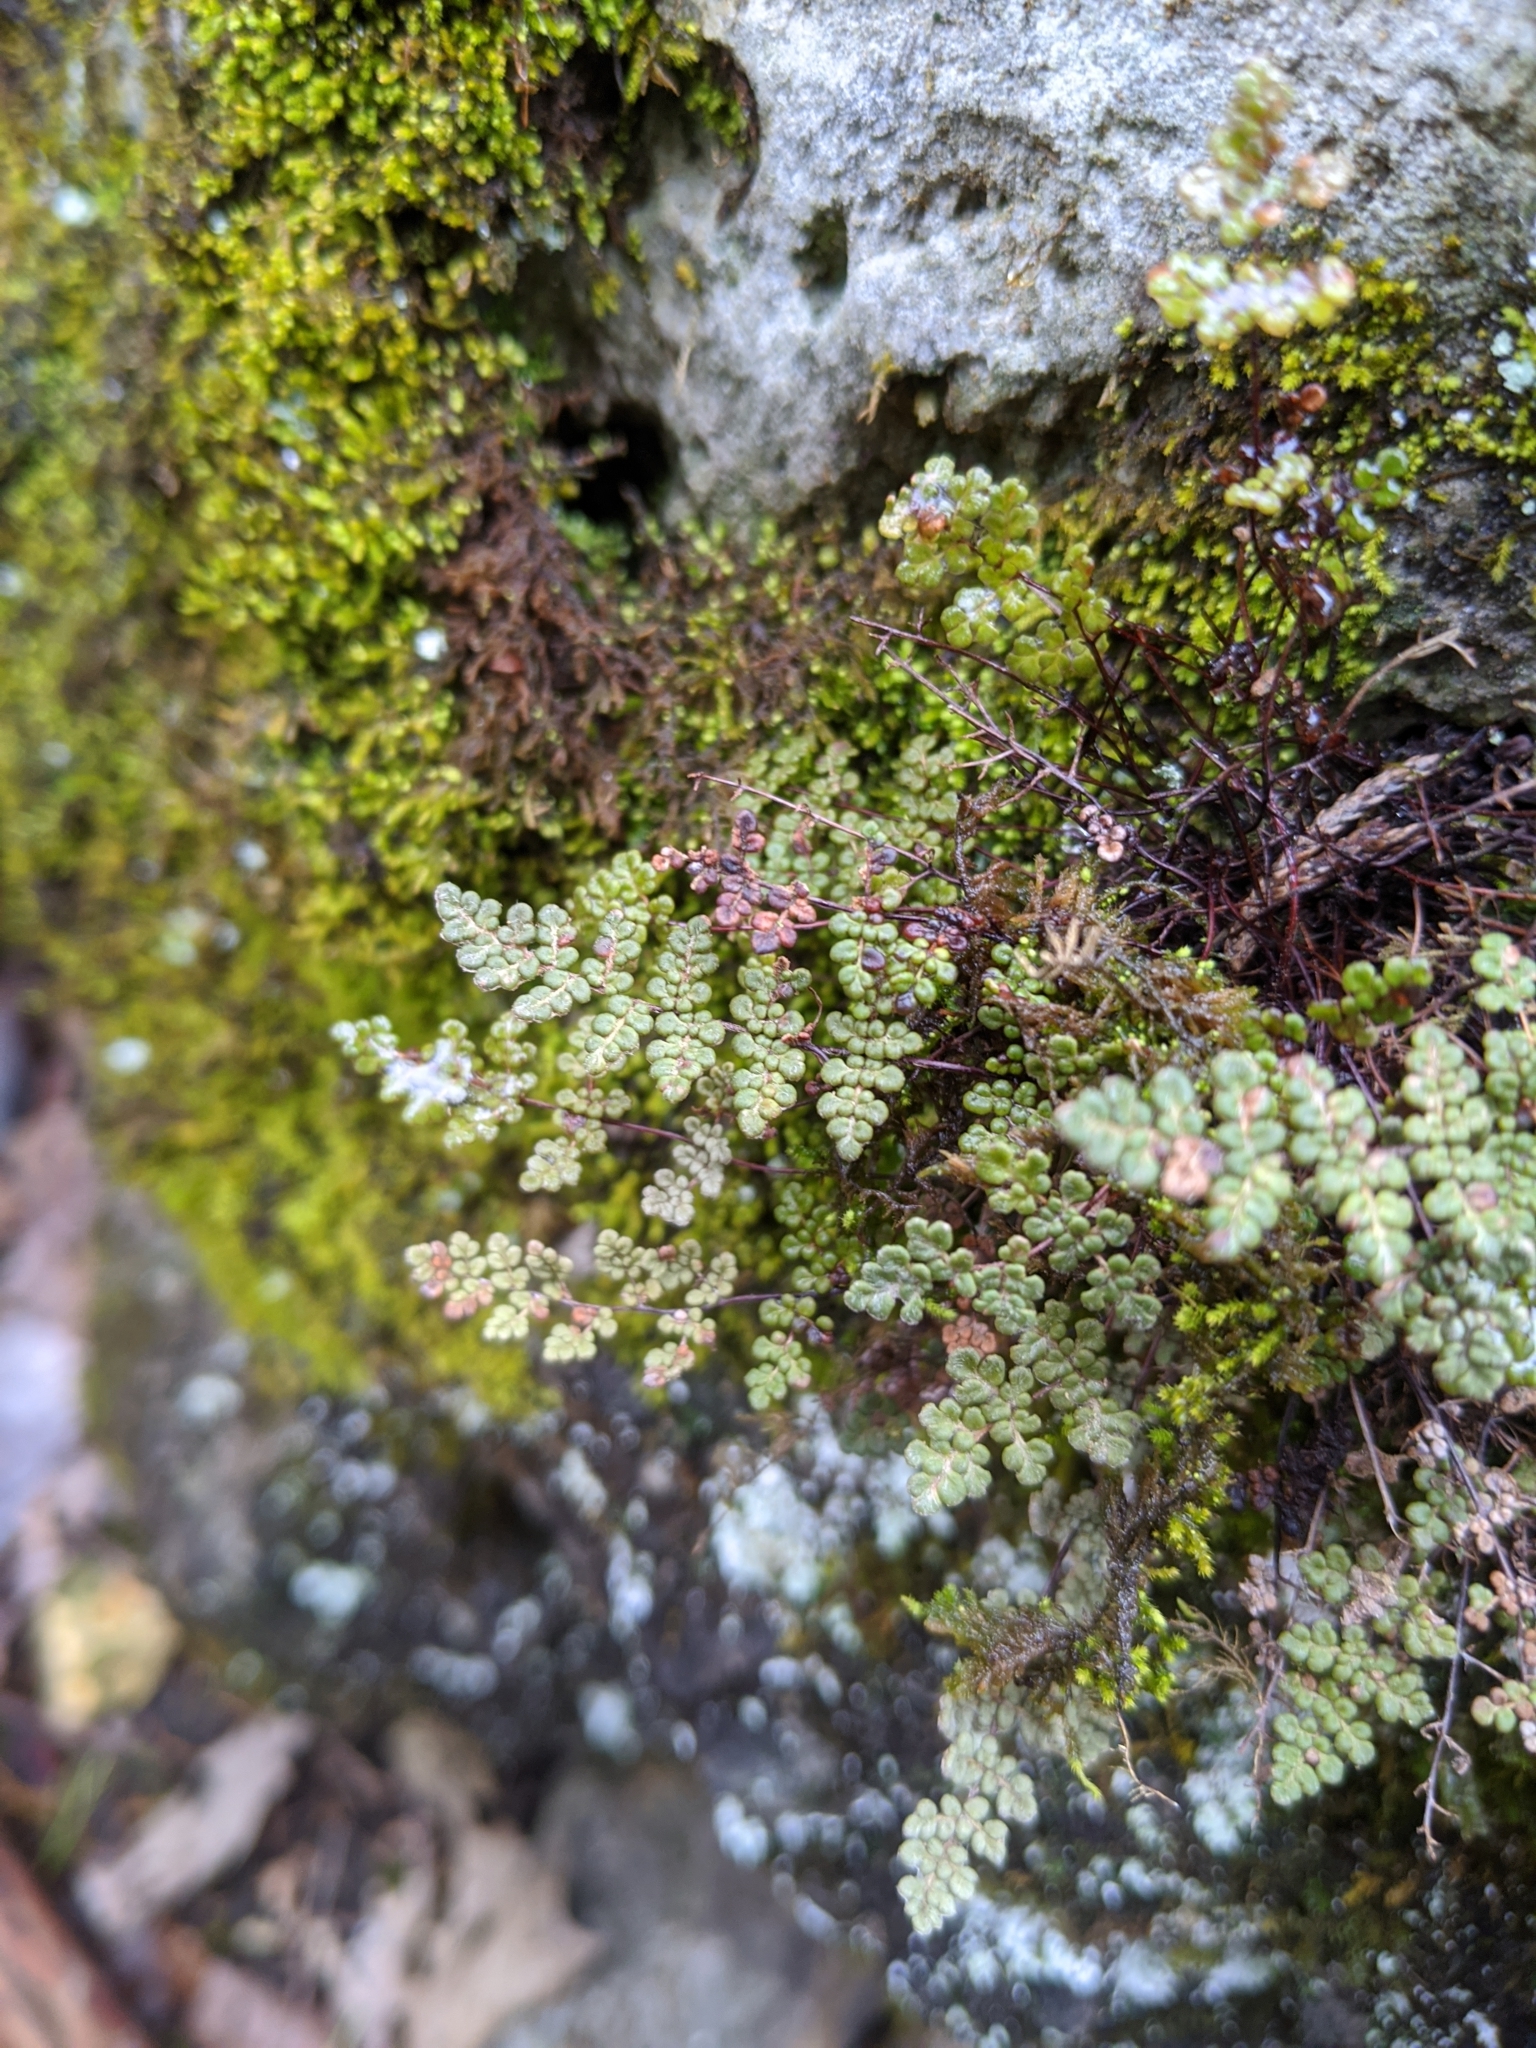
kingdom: Plantae
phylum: Tracheophyta
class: Polypodiopsida
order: Polypodiales
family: Pteridaceae
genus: Myriopteris
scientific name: Myriopteris gracilis
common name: Fee's lip fern
